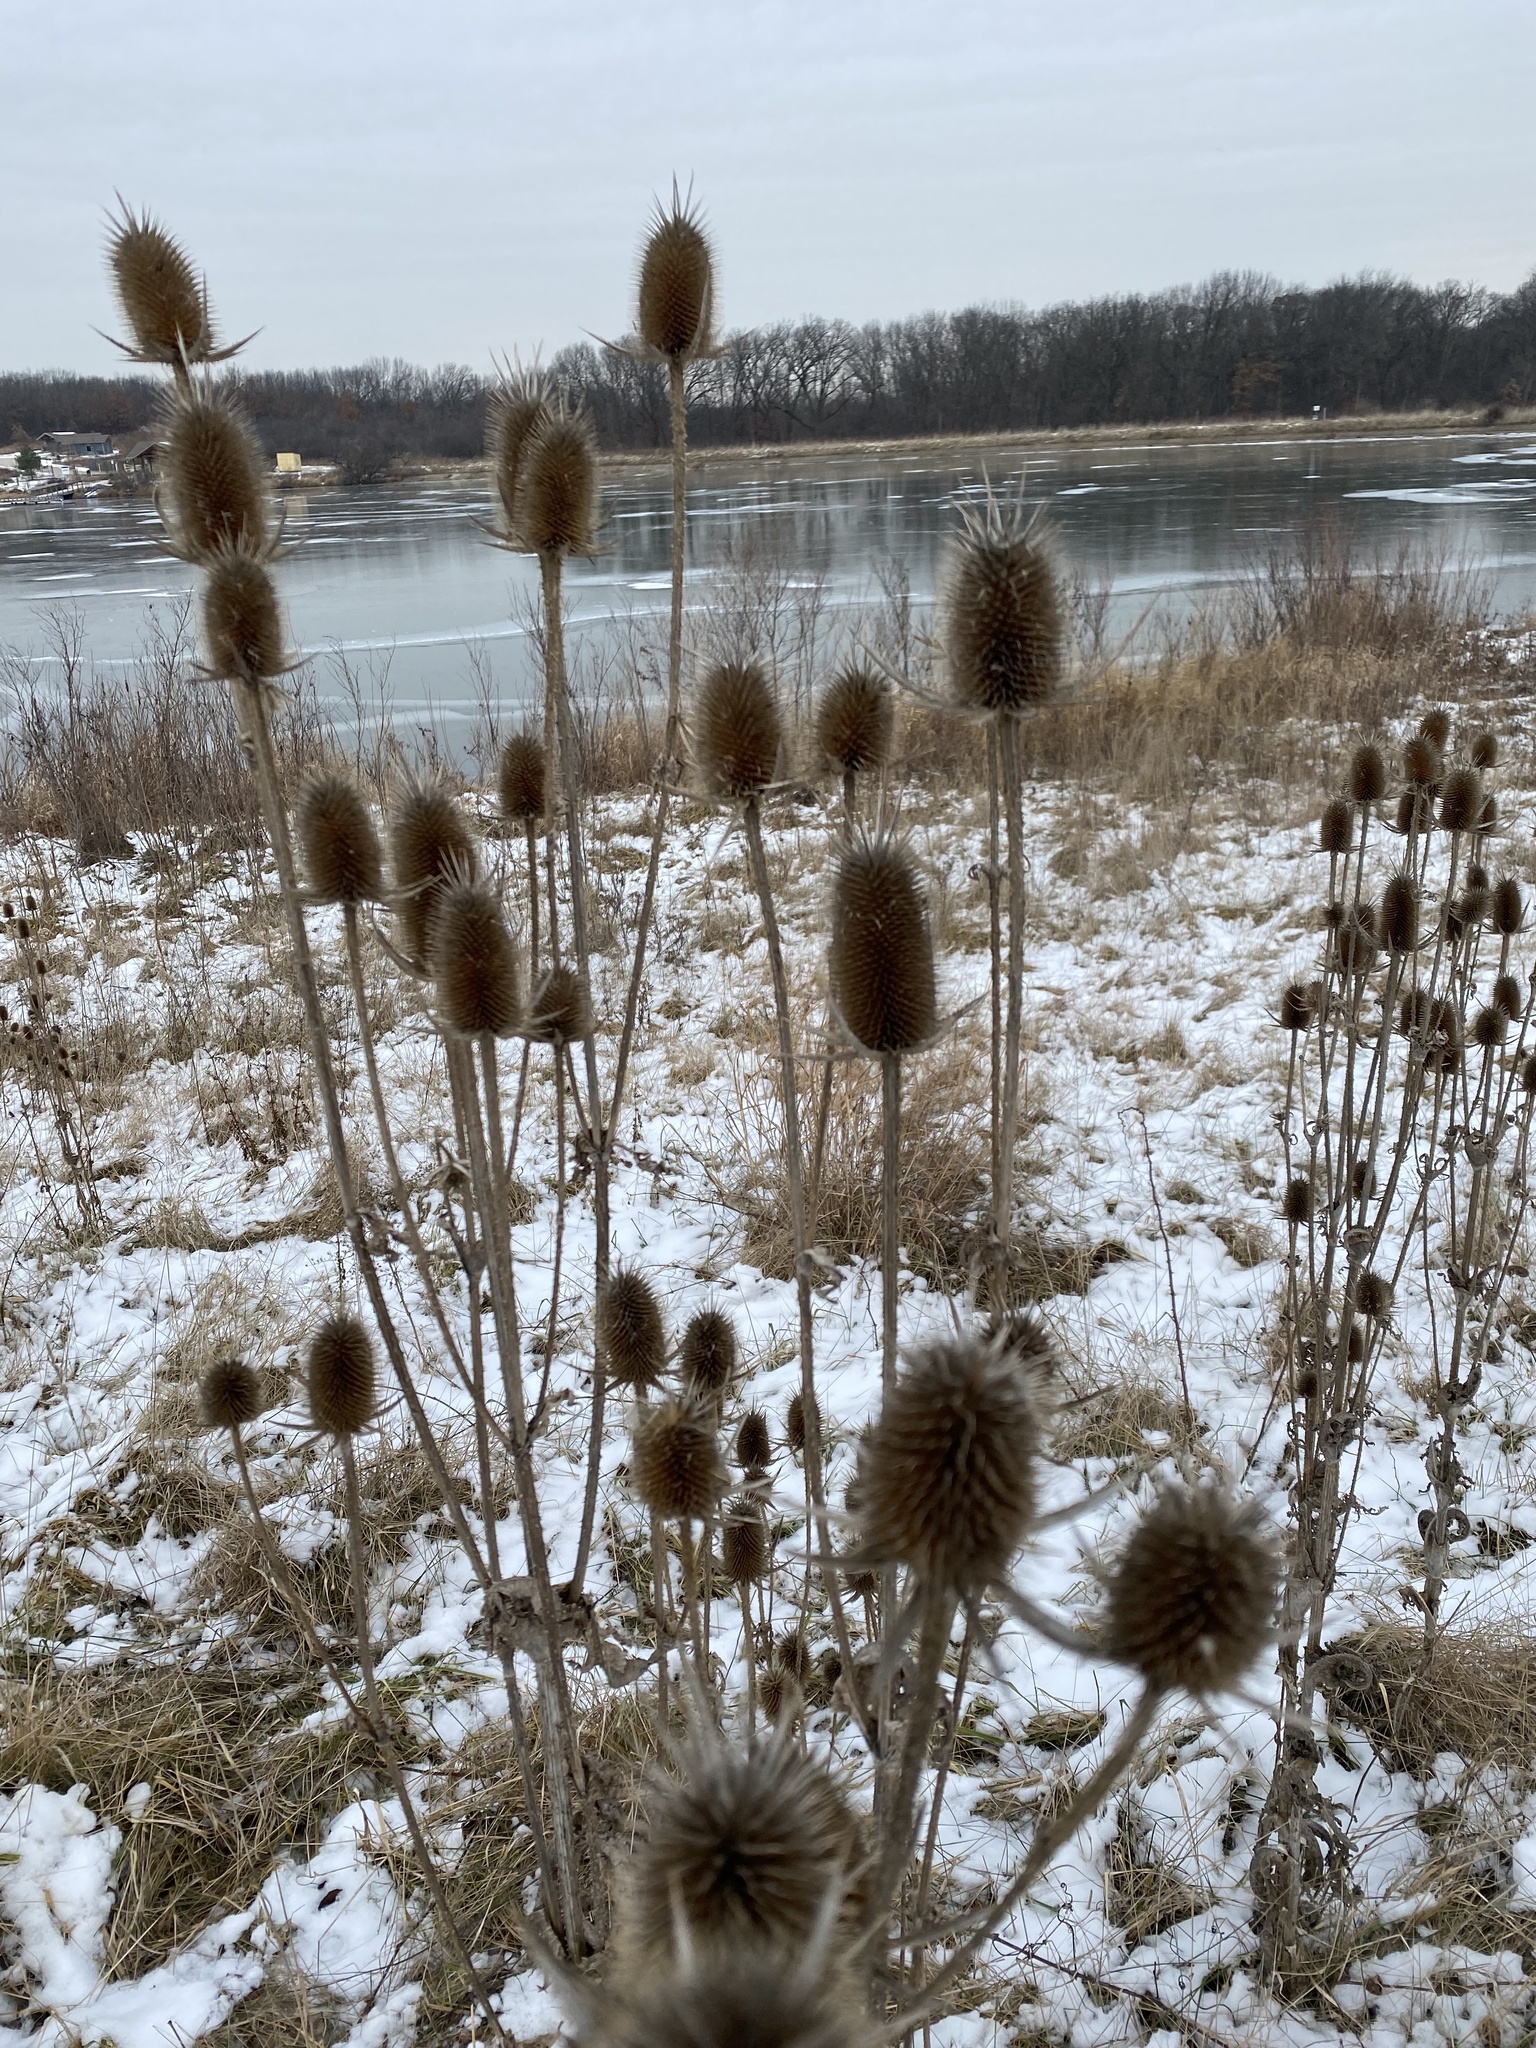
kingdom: Plantae
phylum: Tracheophyta
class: Magnoliopsida
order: Dipsacales
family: Caprifoliaceae
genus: Dipsacus
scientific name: Dipsacus laciniatus
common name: Cut-leaved teasel
